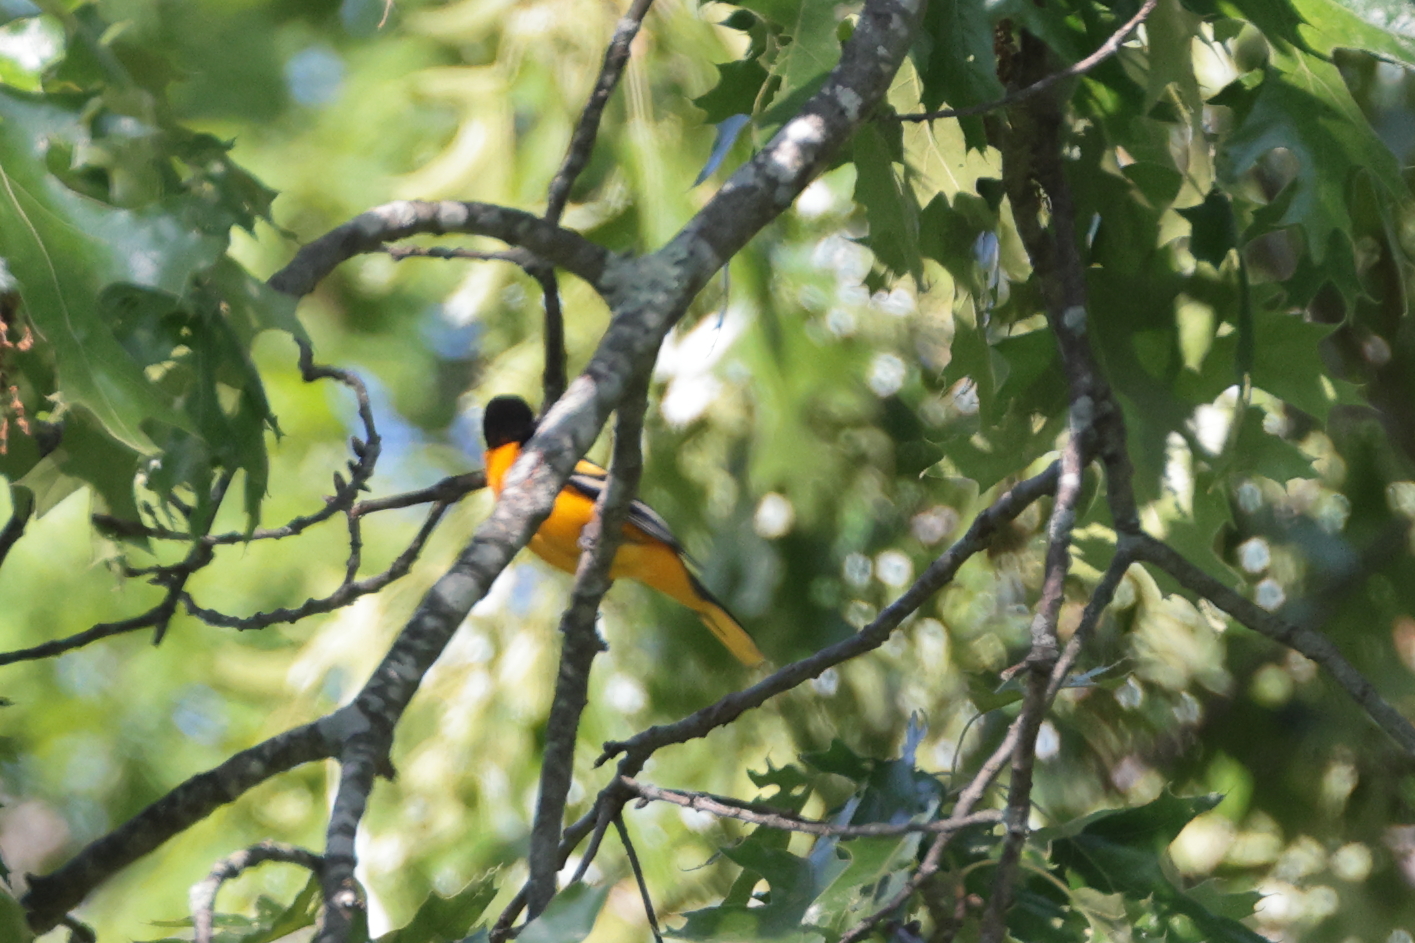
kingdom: Animalia
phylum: Chordata
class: Aves
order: Passeriformes
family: Icteridae
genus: Icterus
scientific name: Icterus galbula
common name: Baltimore oriole
